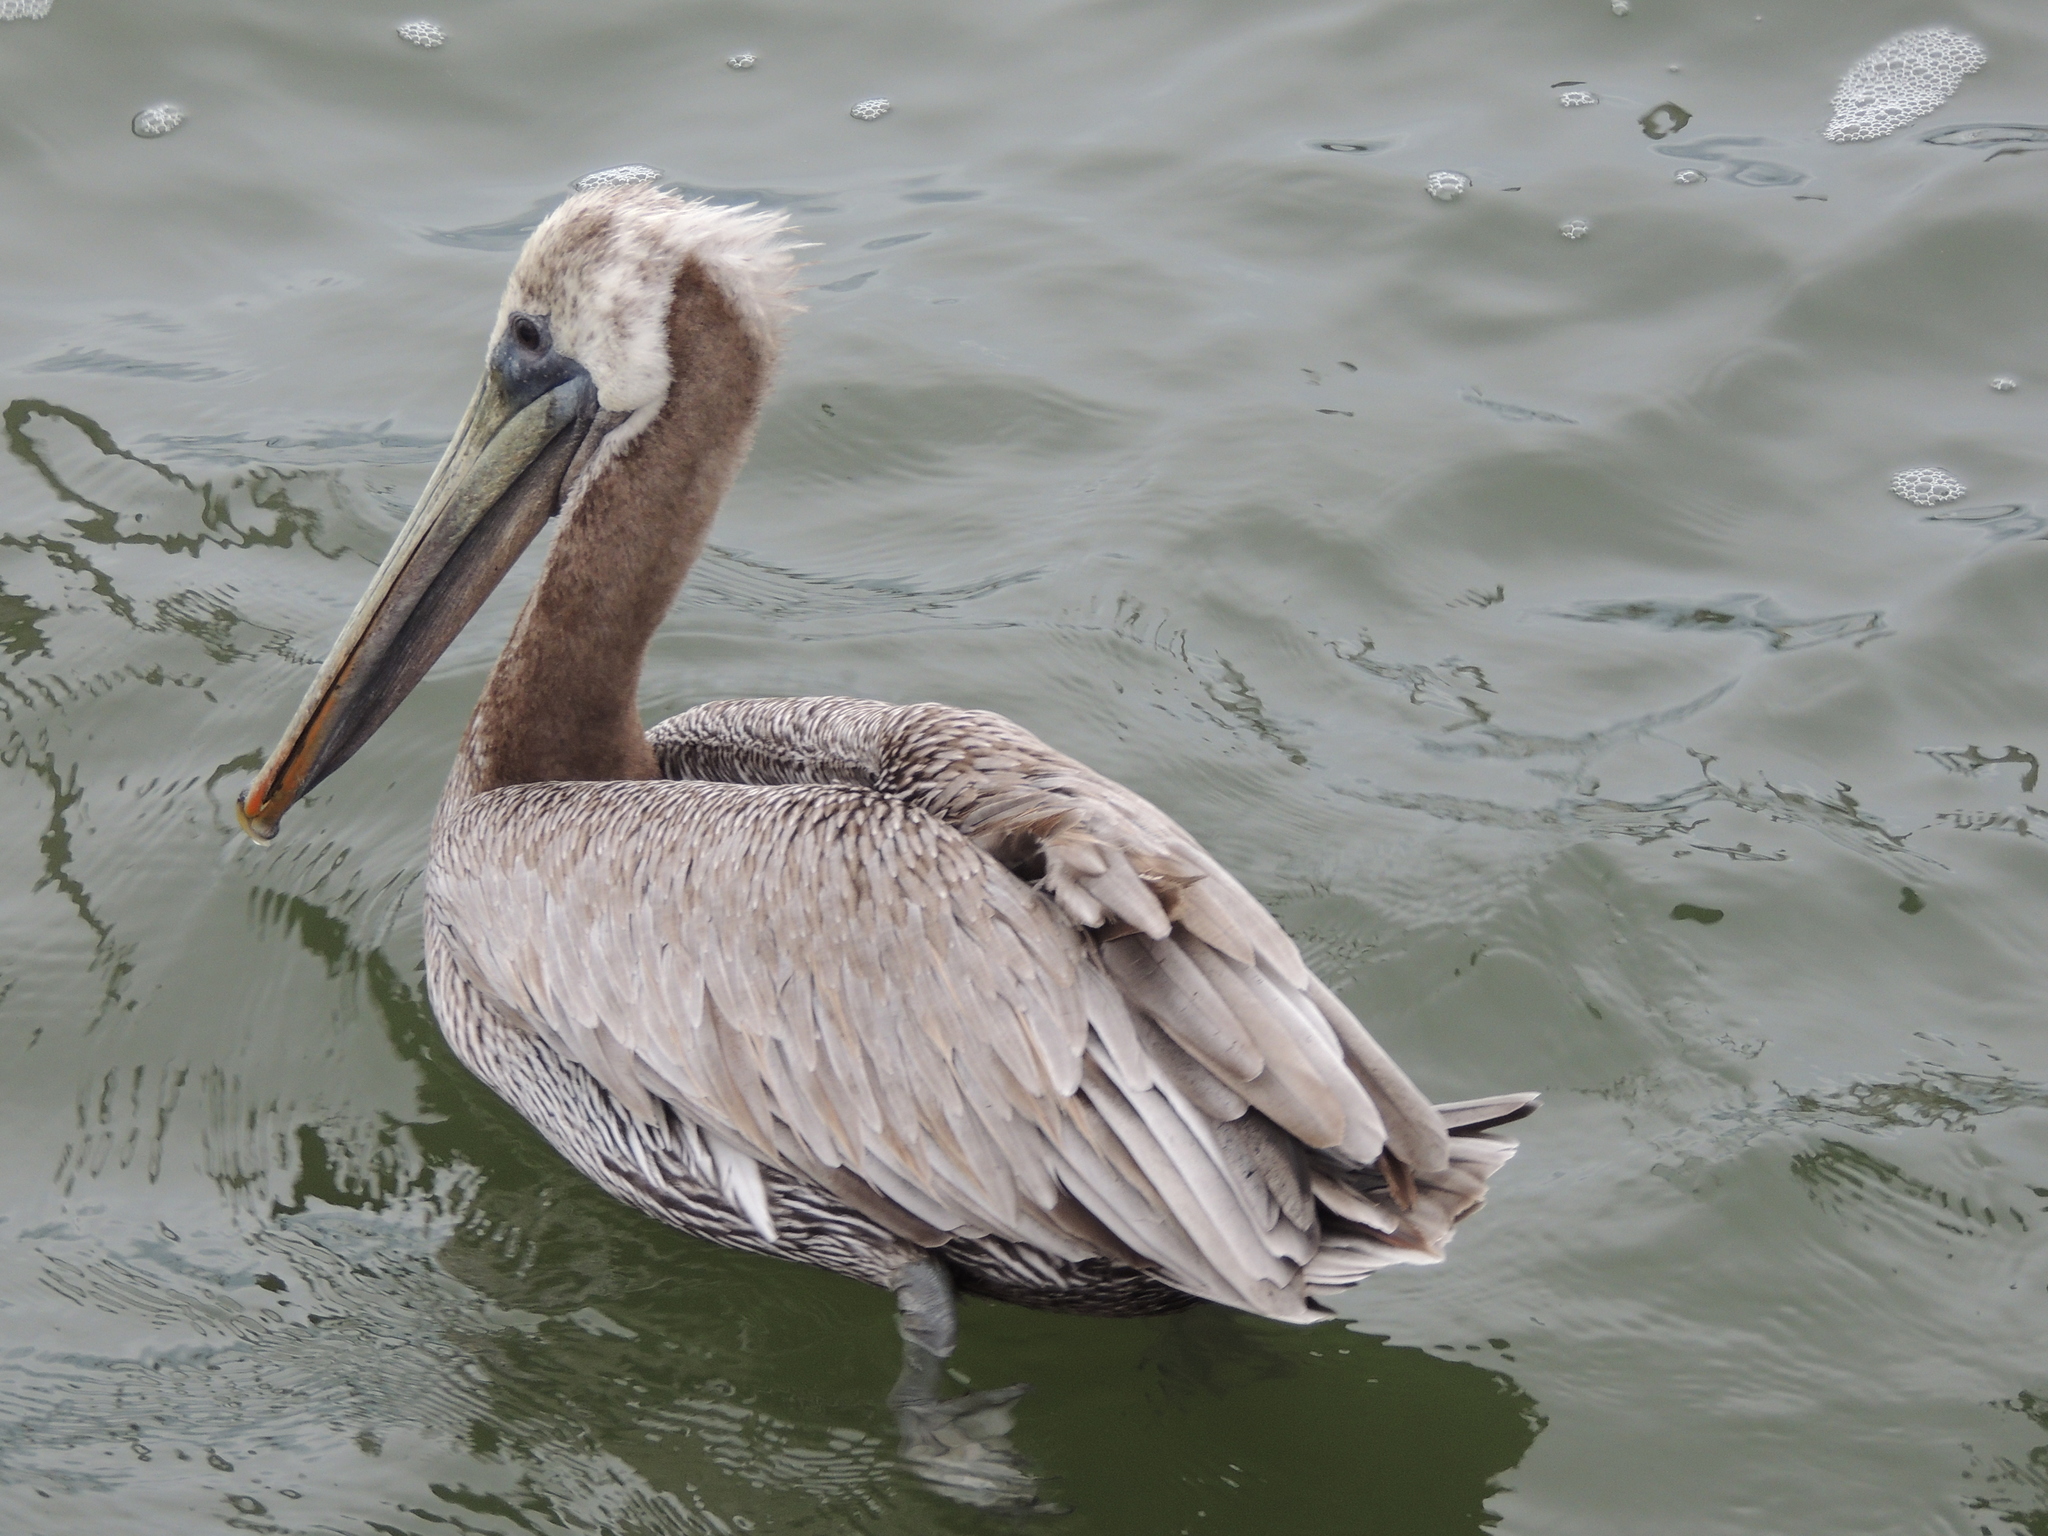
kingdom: Animalia
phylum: Chordata
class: Aves
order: Pelecaniformes
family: Pelecanidae
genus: Pelecanus
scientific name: Pelecanus occidentalis
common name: Brown pelican
